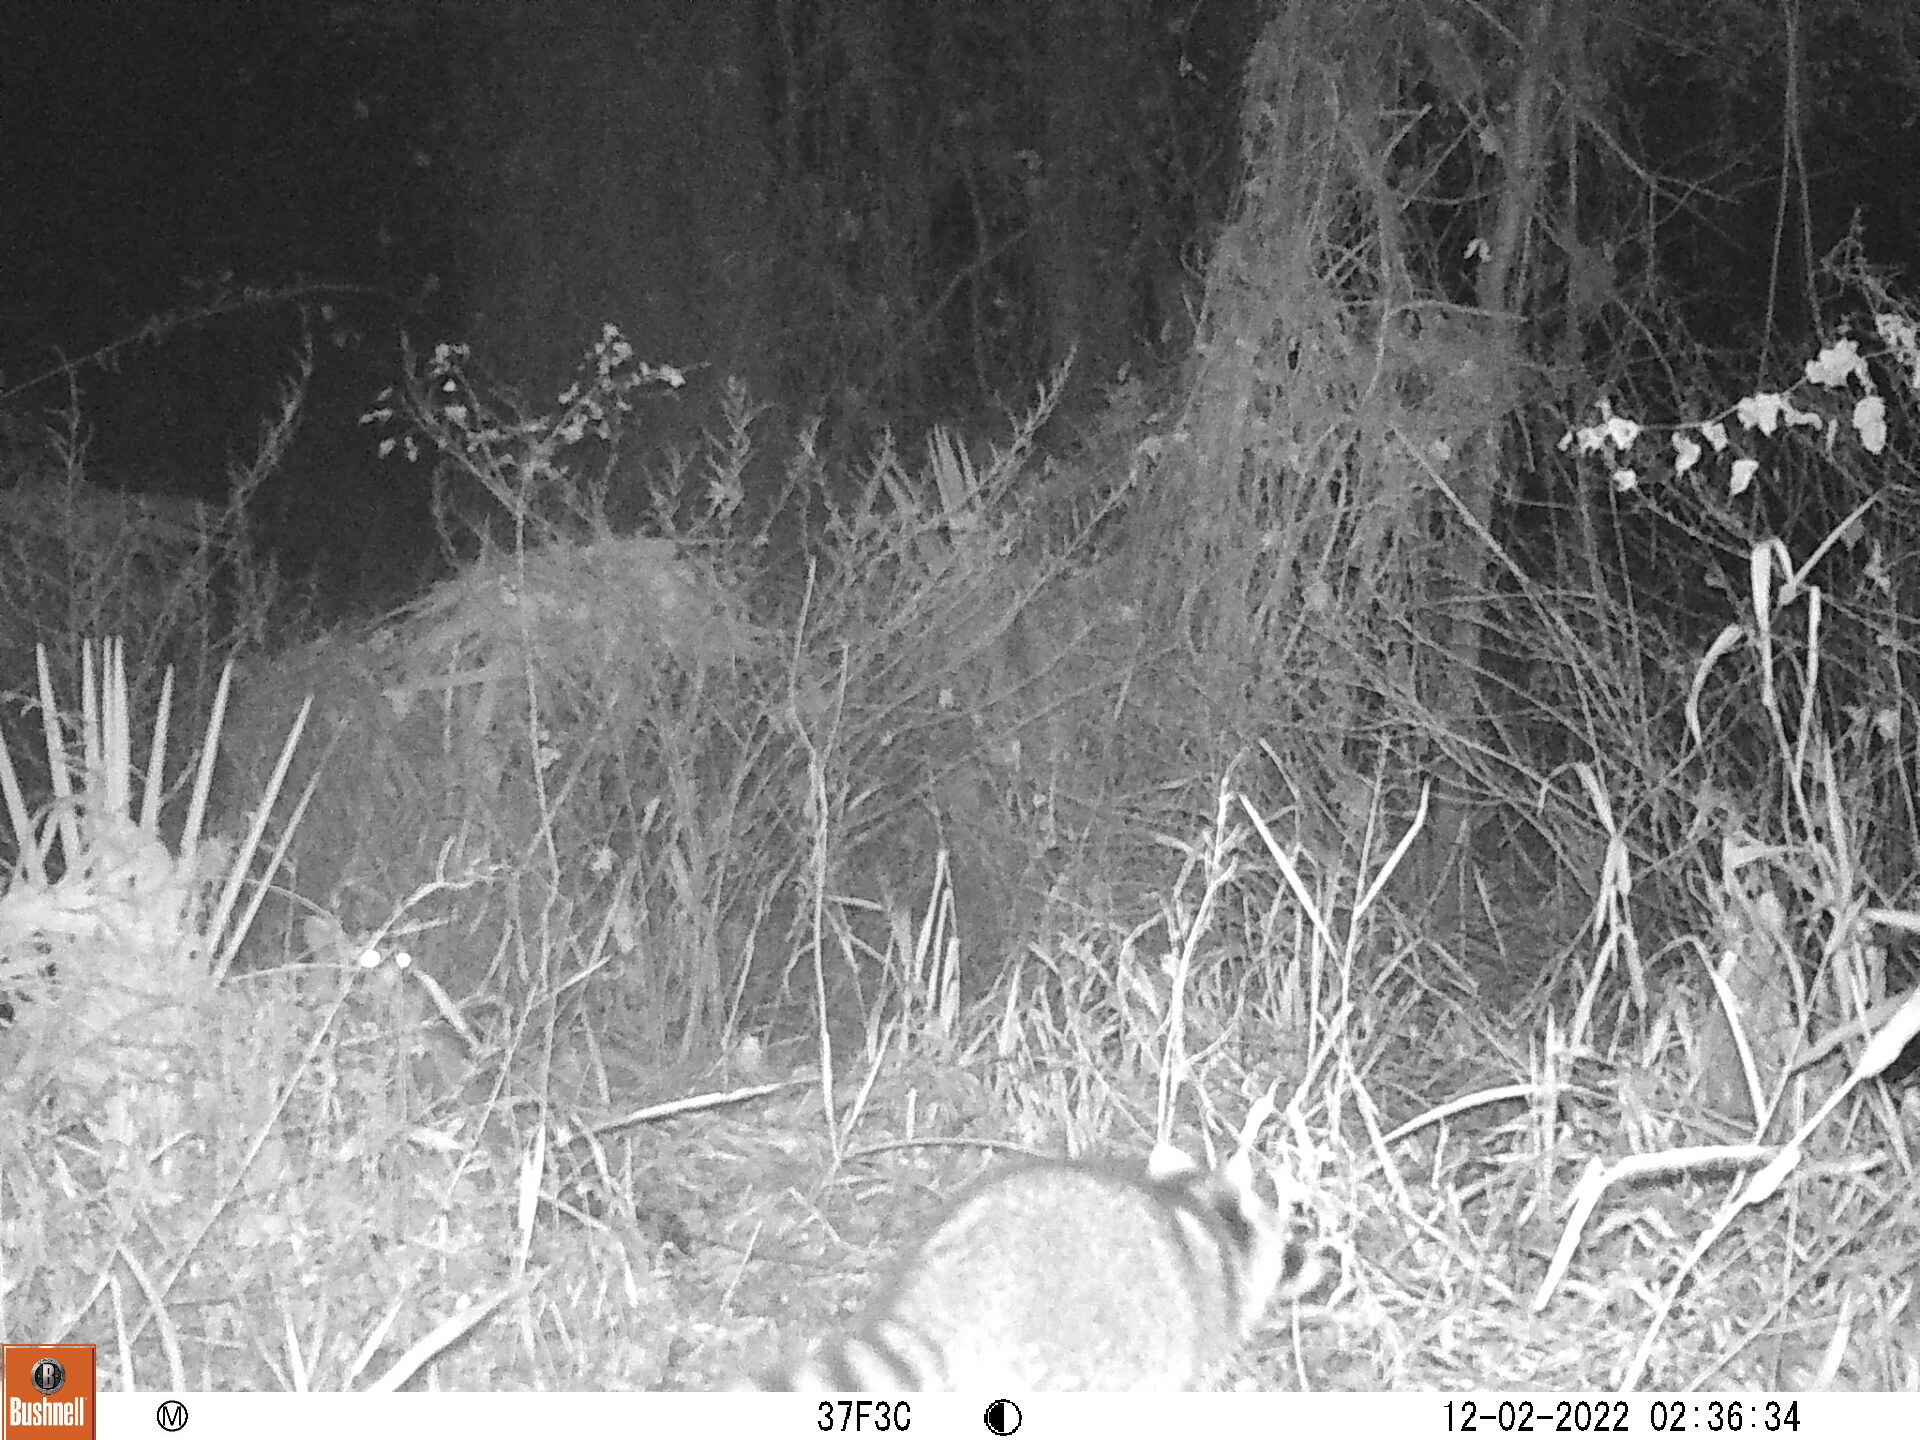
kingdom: Animalia
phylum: Chordata
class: Mammalia
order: Carnivora
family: Procyonidae
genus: Procyon
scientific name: Procyon lotor
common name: Raccoon
